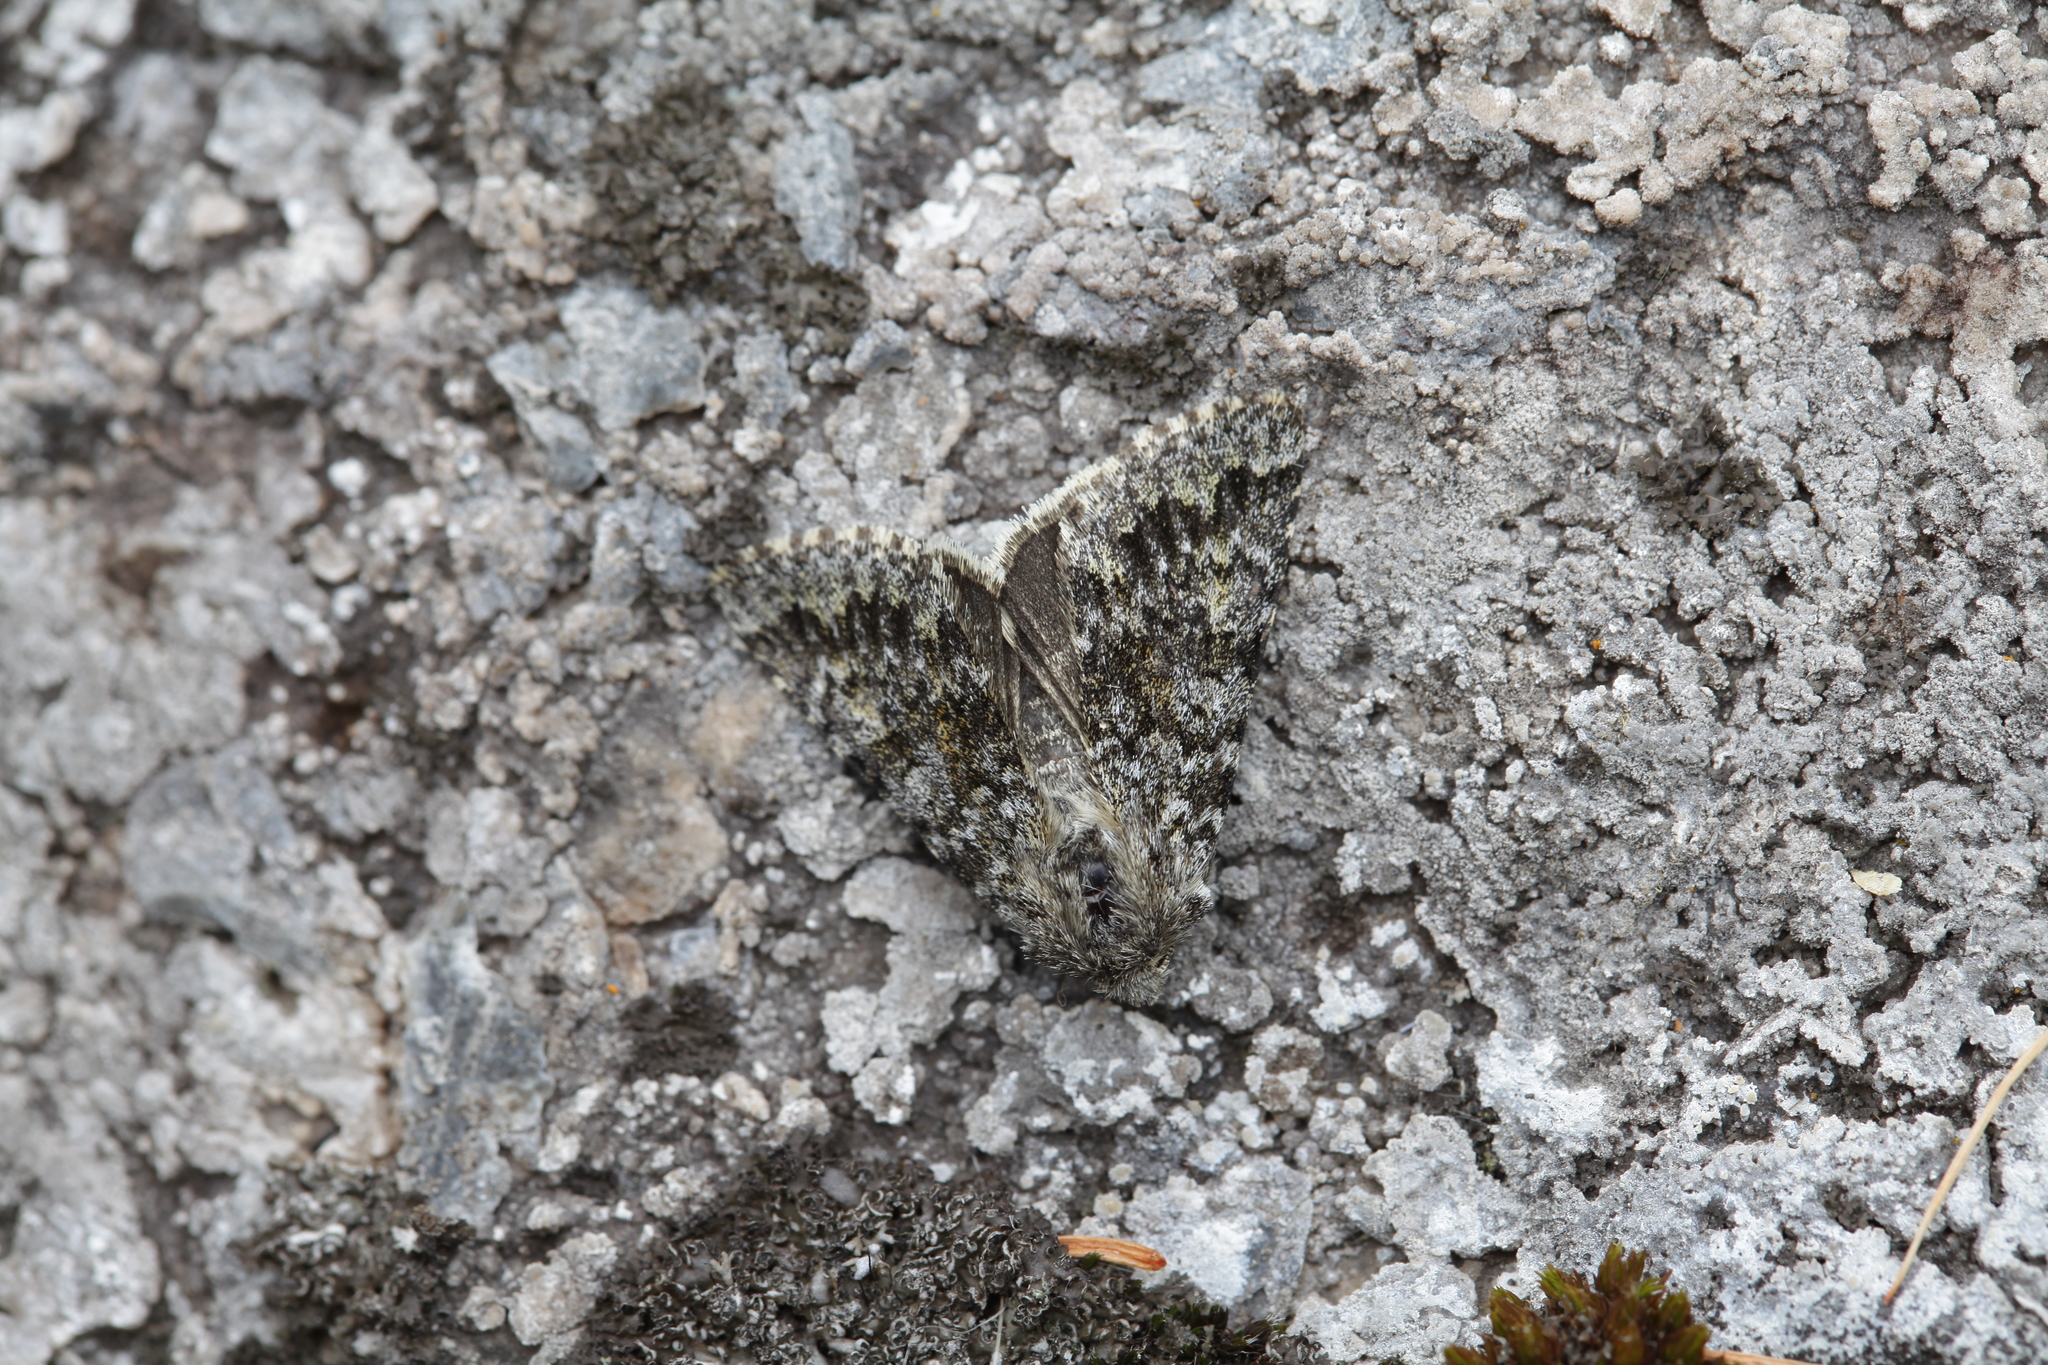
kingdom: Animalia
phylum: Arthropoda
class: Insecta
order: Lepidoptera
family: Noctuidae
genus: Lasionycta
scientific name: Lasionycta dovrensis
